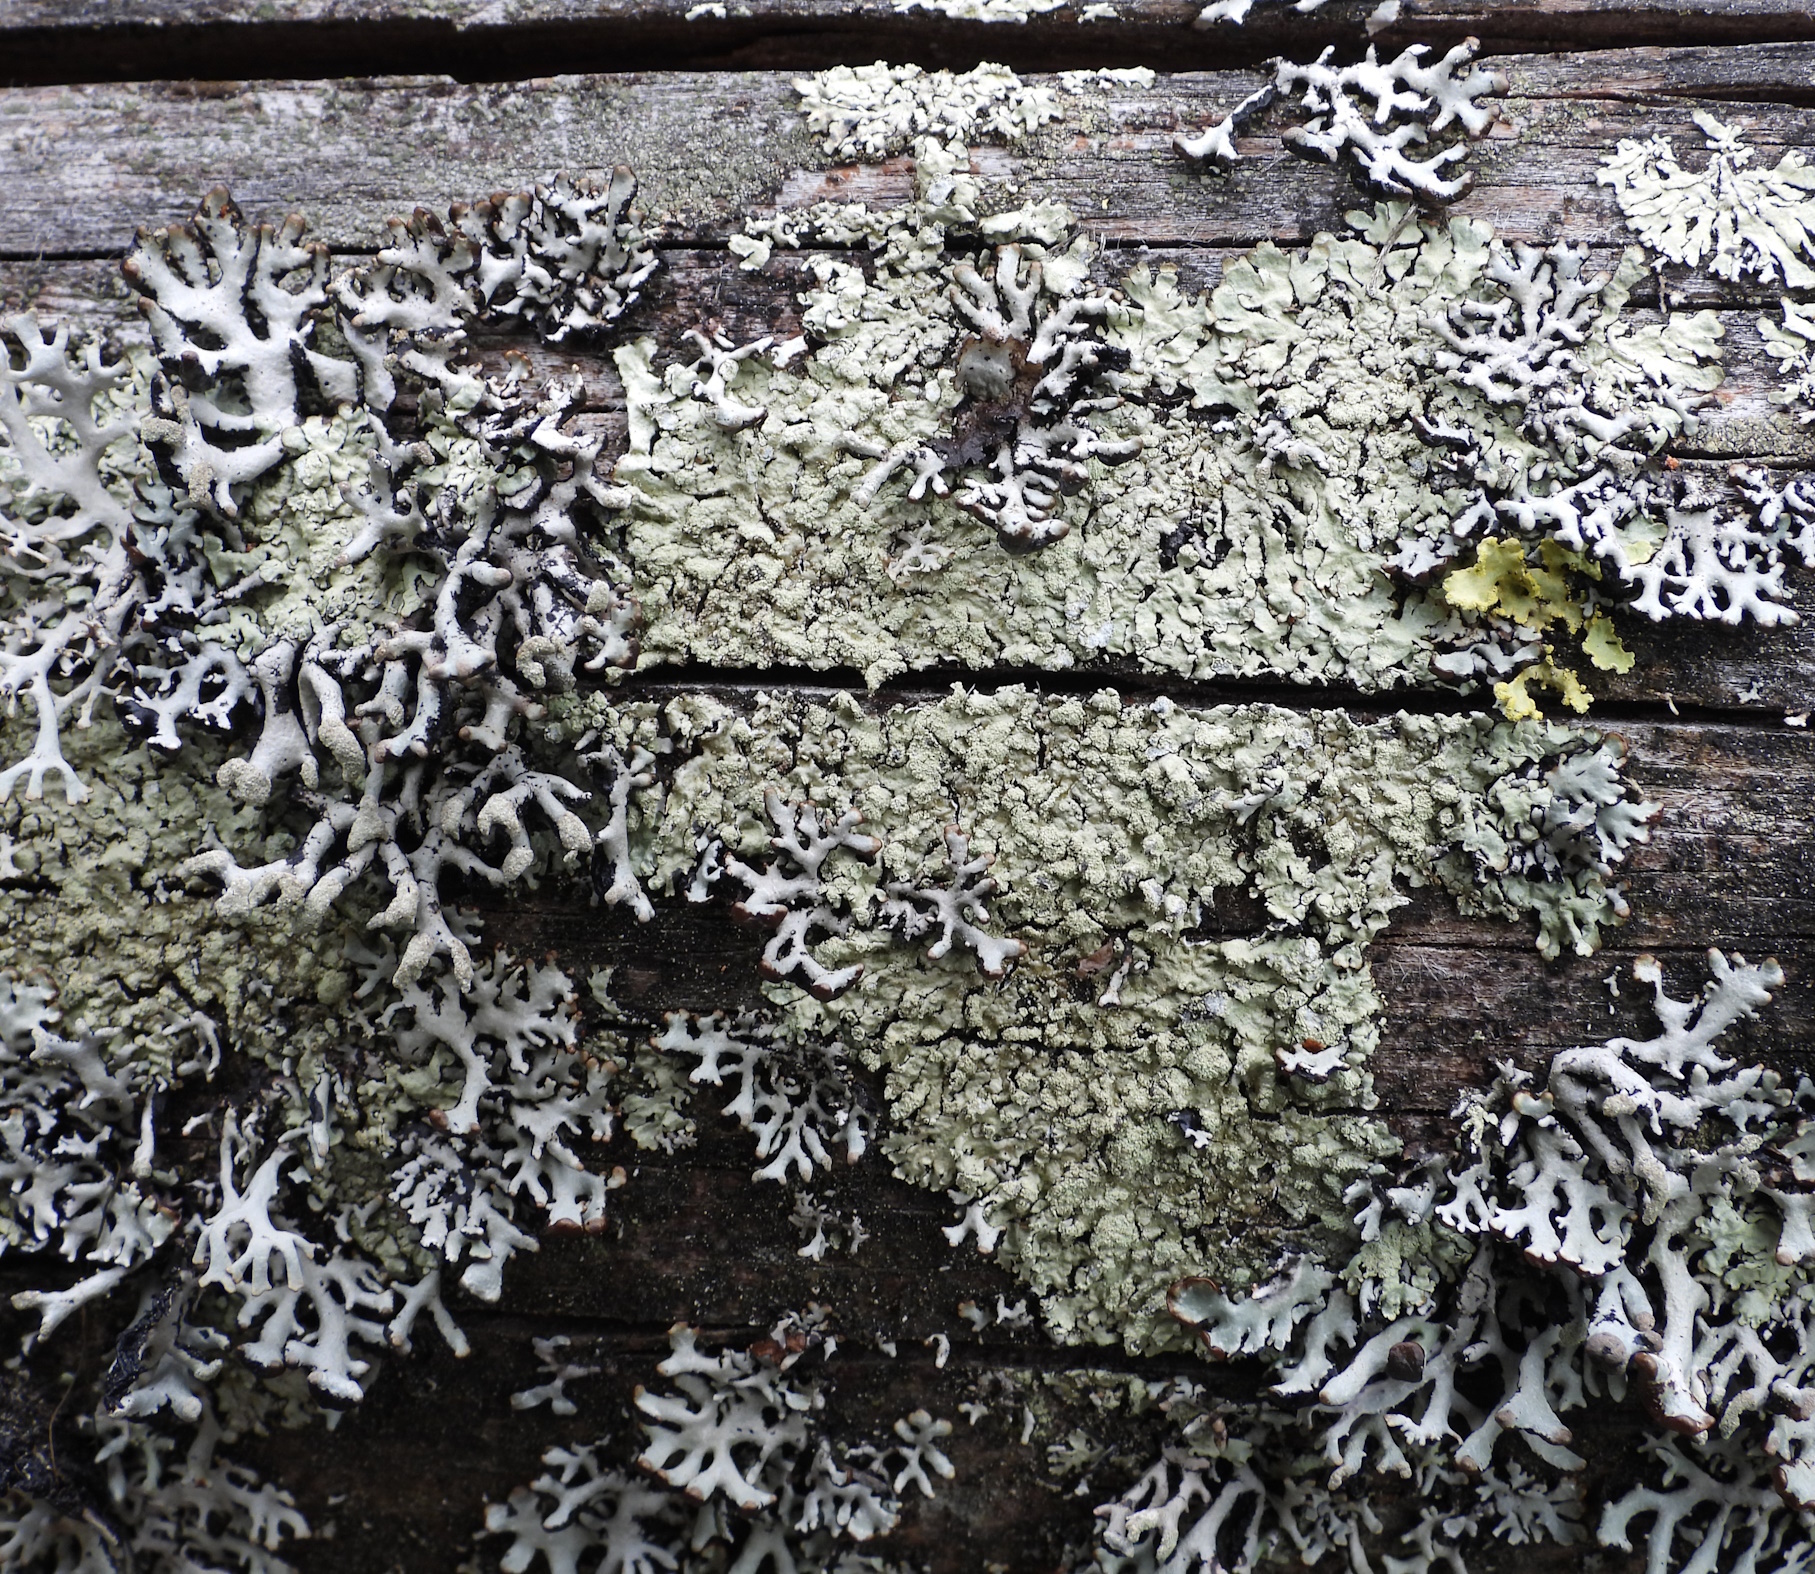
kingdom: Fungi
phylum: Ascomycota
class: Lecanoromycetes
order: Lecanorales
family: Parmeliaceae
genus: Hypogymnia
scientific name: Hypogymnia tubulosa
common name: Powder-headed tube lichen
